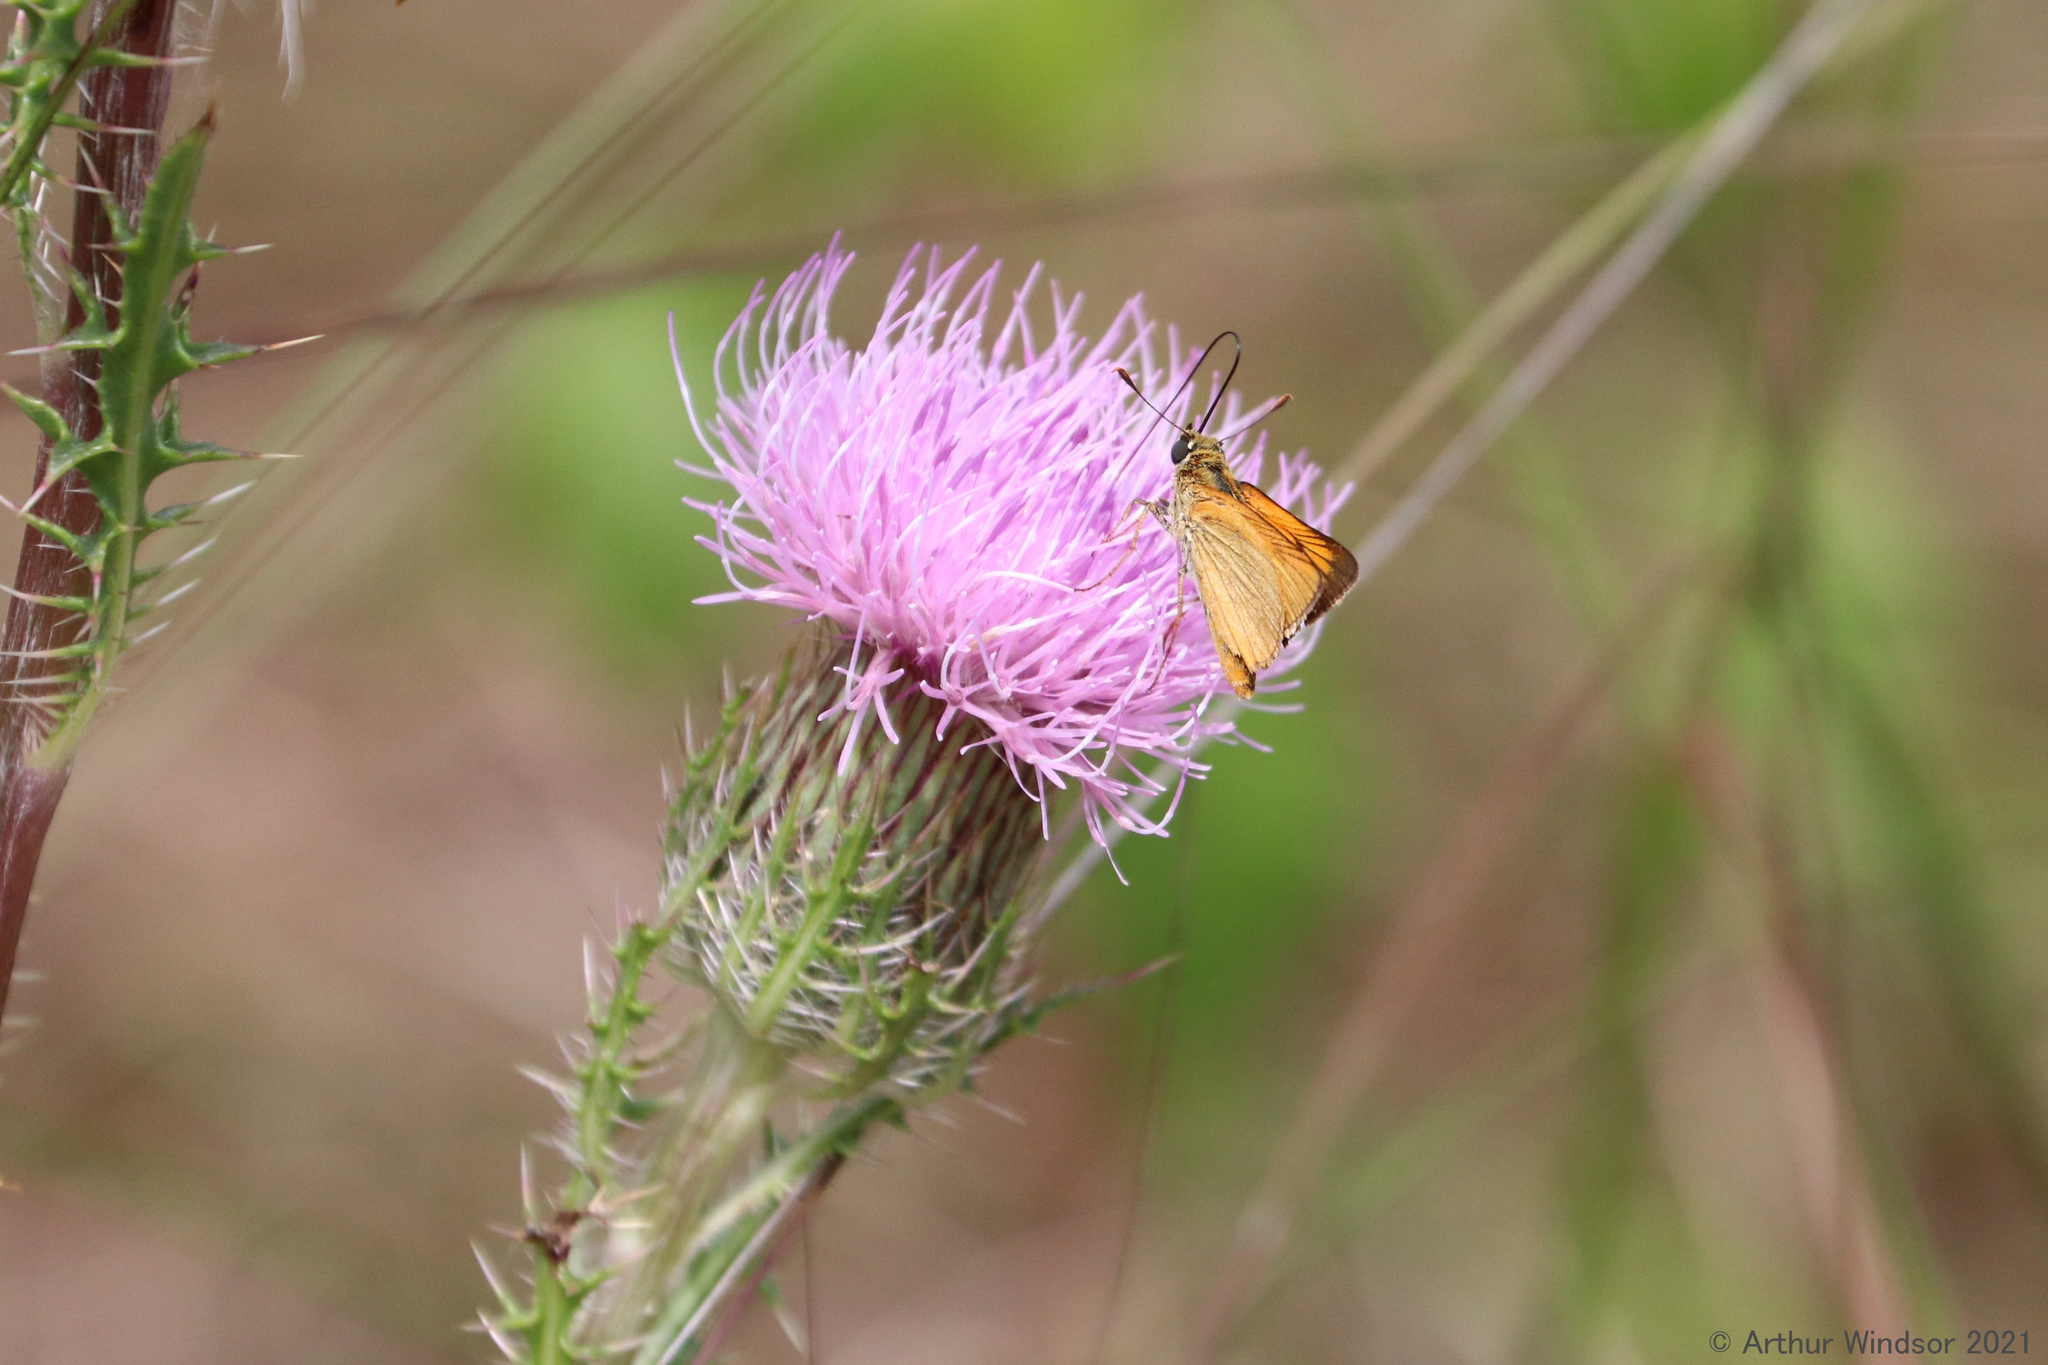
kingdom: Animalia
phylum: Arthropoda
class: Insecta
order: Lepidoptera
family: Hesperiidae
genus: Atrytone
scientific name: Atrytone delaware
